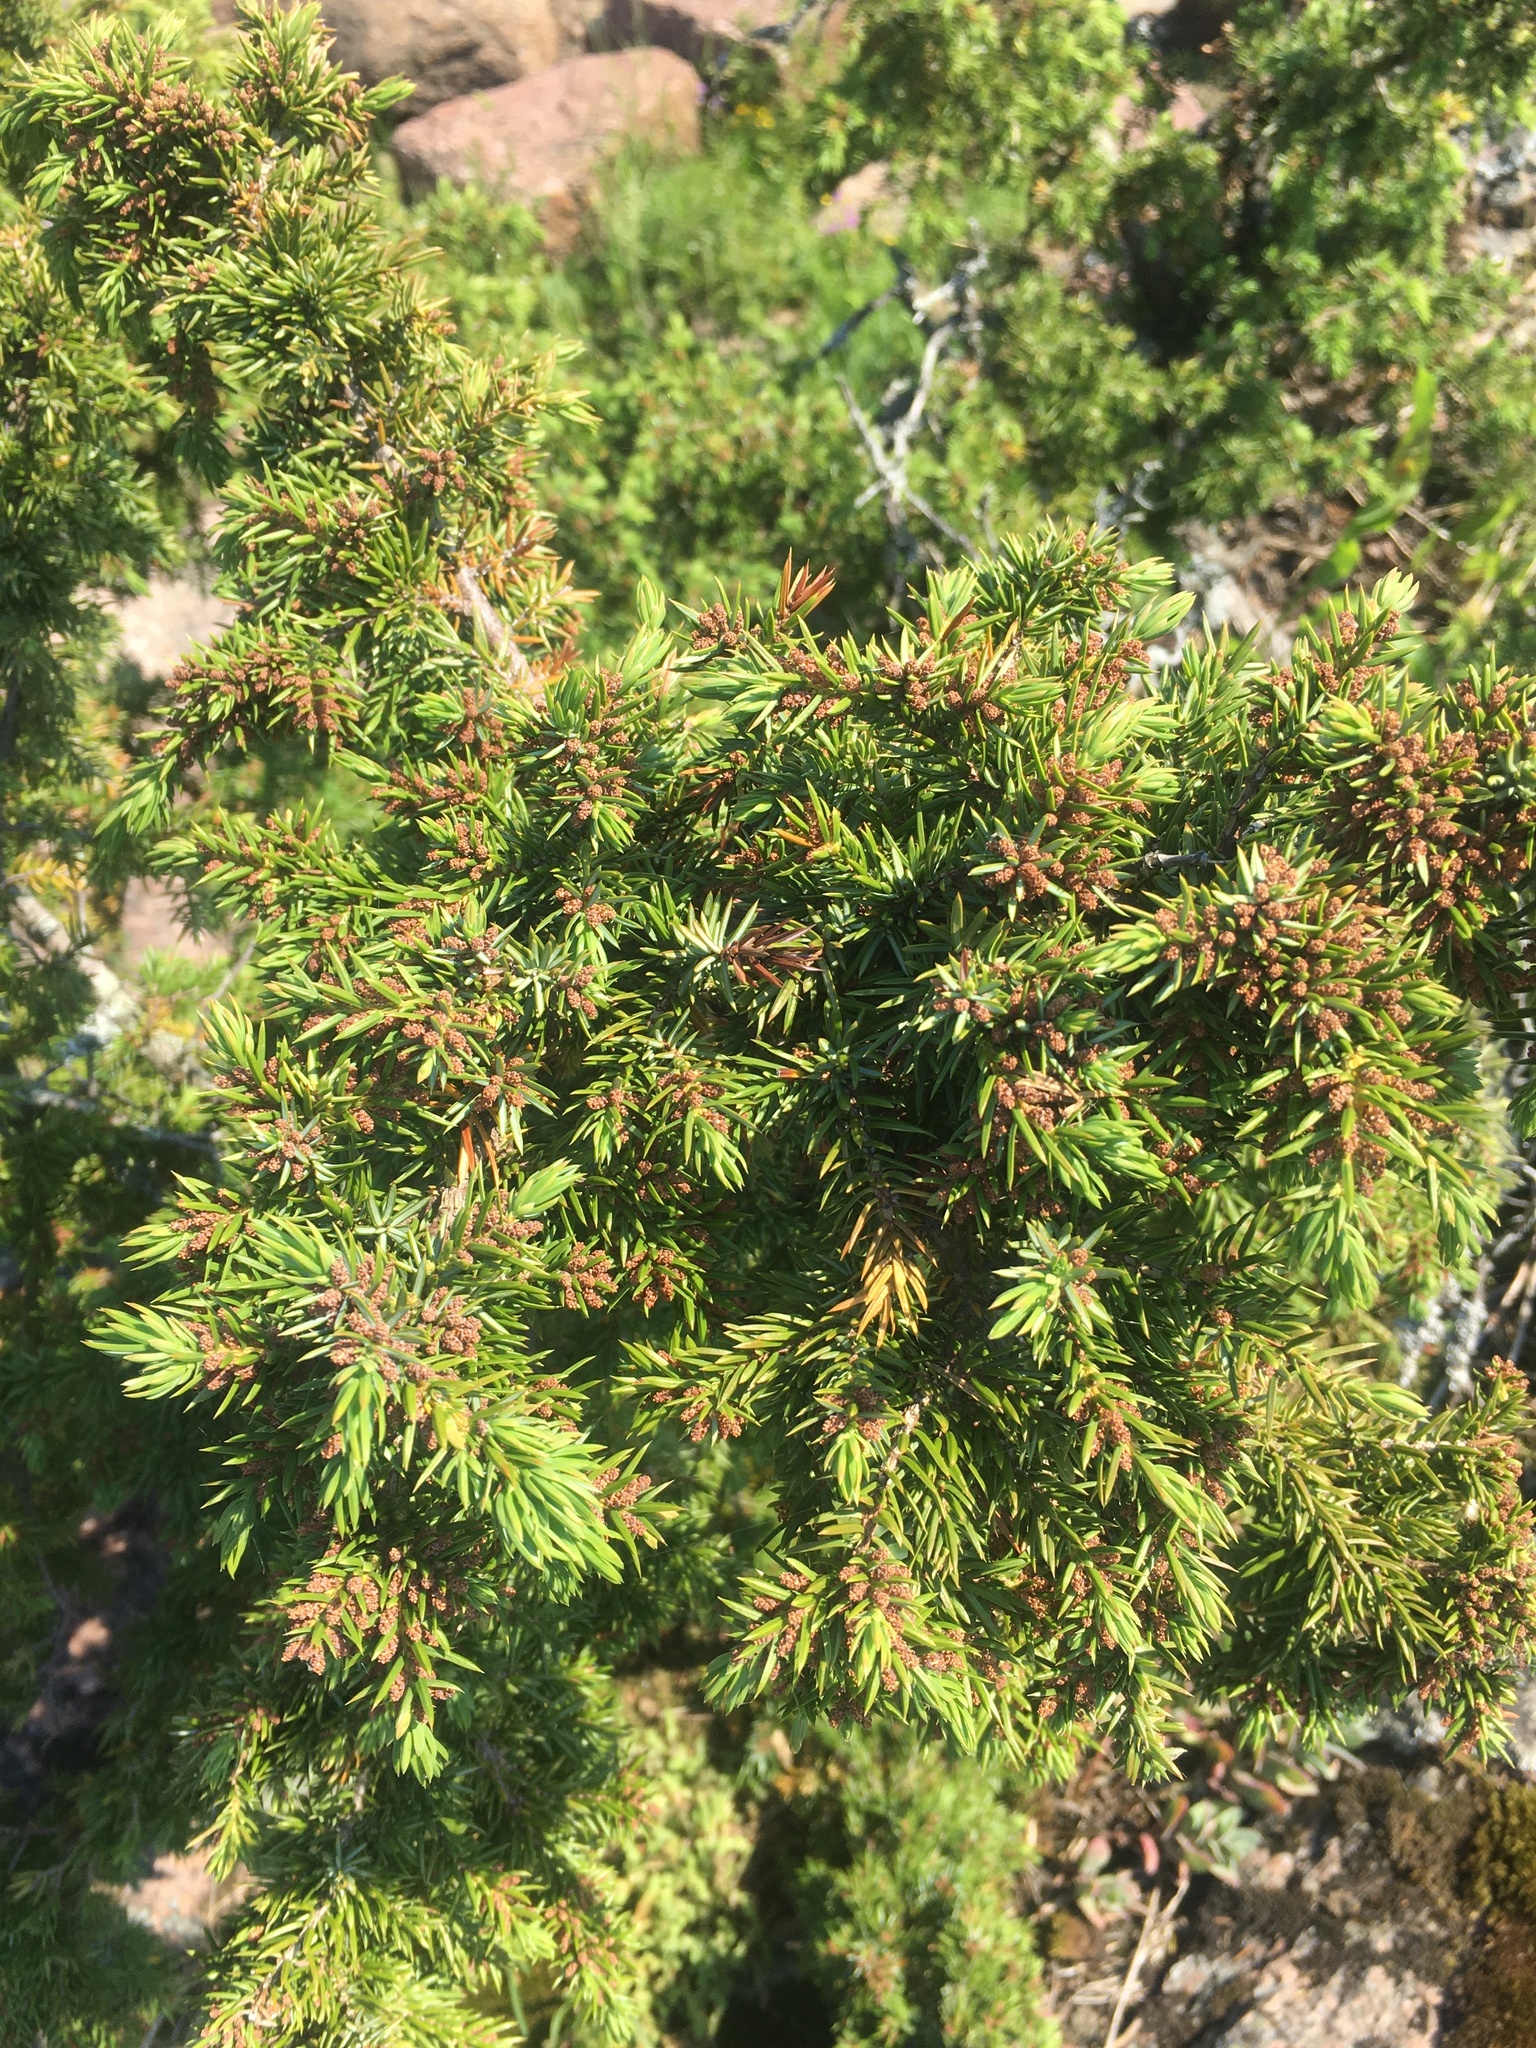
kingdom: Plantae
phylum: Tracheophyta
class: Pinopsida
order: Pinales
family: Cupressaceae
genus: Juniperus
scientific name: Juniperus communis
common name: Common juniper
